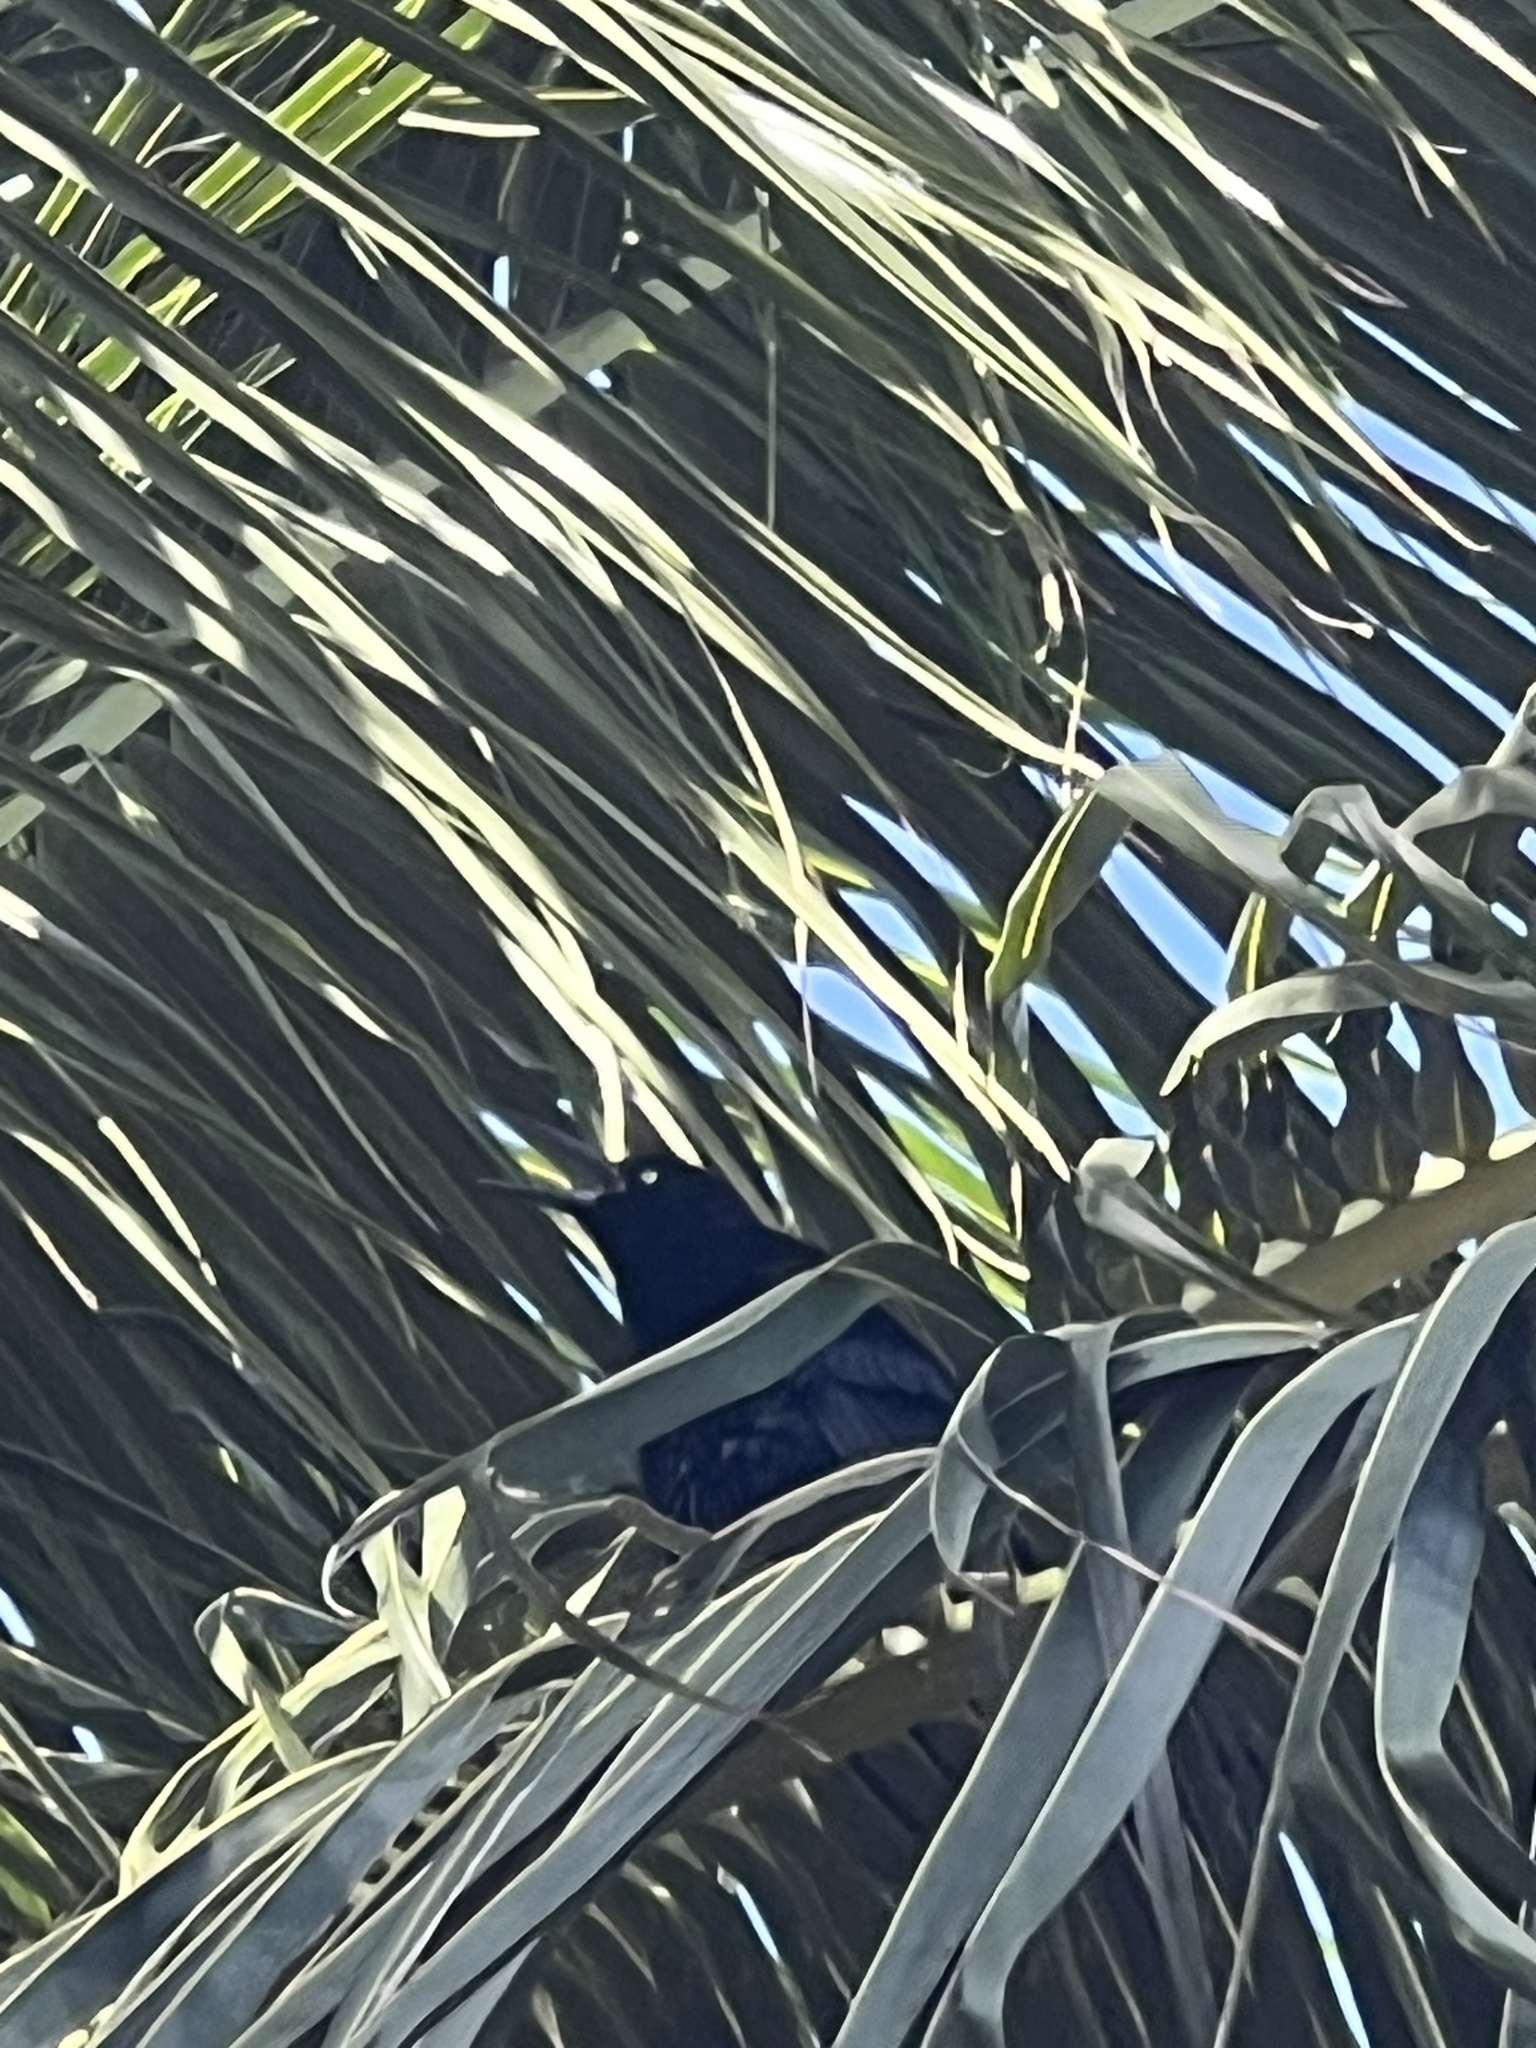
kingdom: Animalia
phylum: Chordata
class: Aves
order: Passeriformes
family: Icteridae
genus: Quiscalus
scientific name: Quiscalus mexicanus
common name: Great-tailed grackle
